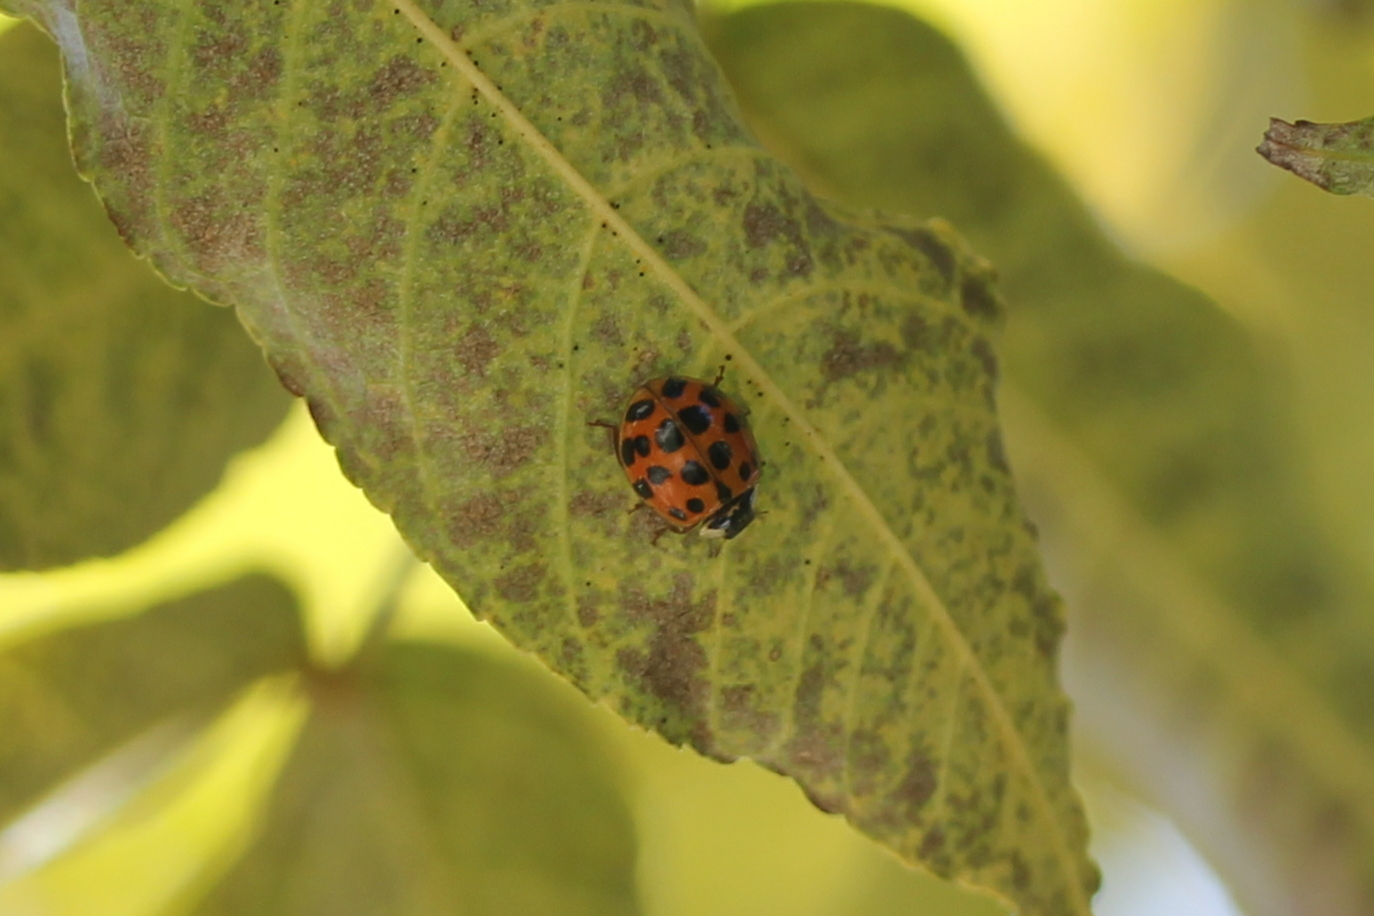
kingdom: Animalia
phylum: Arthropoda
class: Insecta
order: Coleoptera
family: Coccinellidae
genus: Harmonia
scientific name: Harmonia axyridis
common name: Harlequin ladybird
